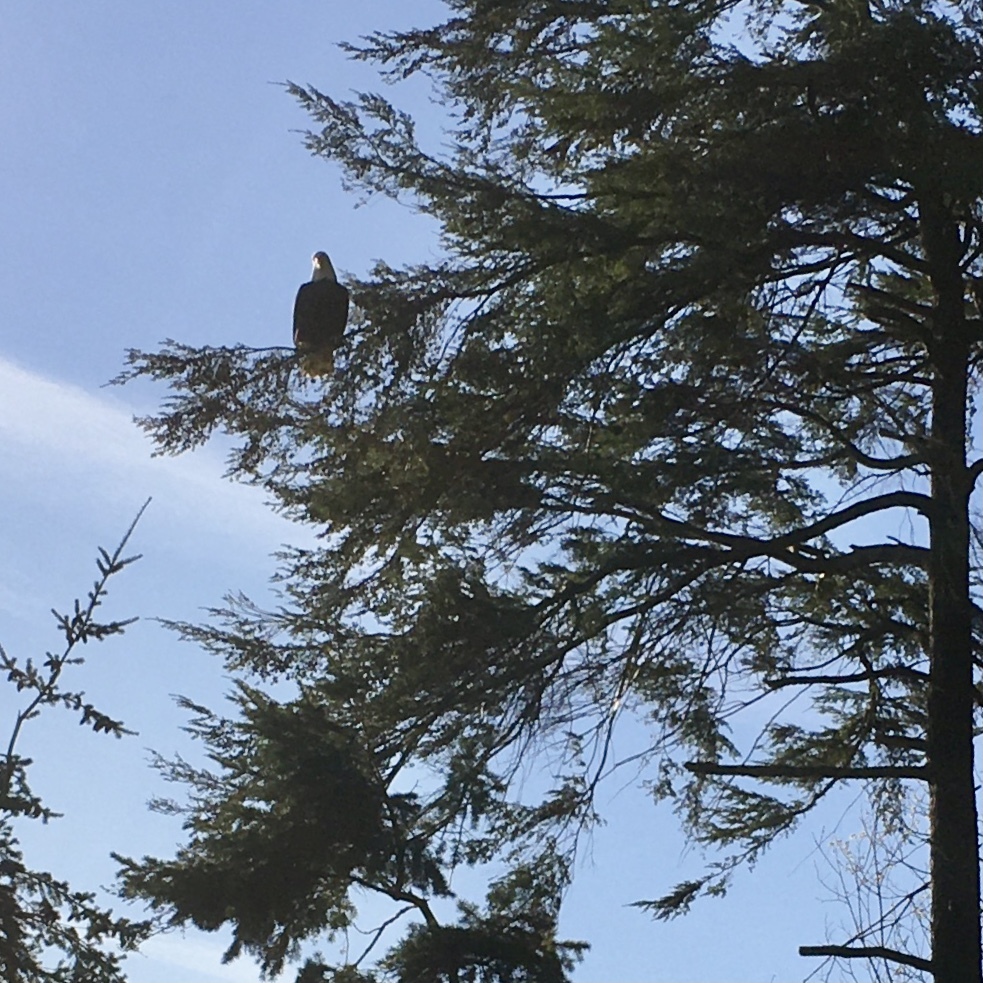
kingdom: Animalia
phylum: Chordata
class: Aves
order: Accipitriformes
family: Accipitridae
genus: Haliaeetus
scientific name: Haliaeetus leucocephalus
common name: Bald eagle
